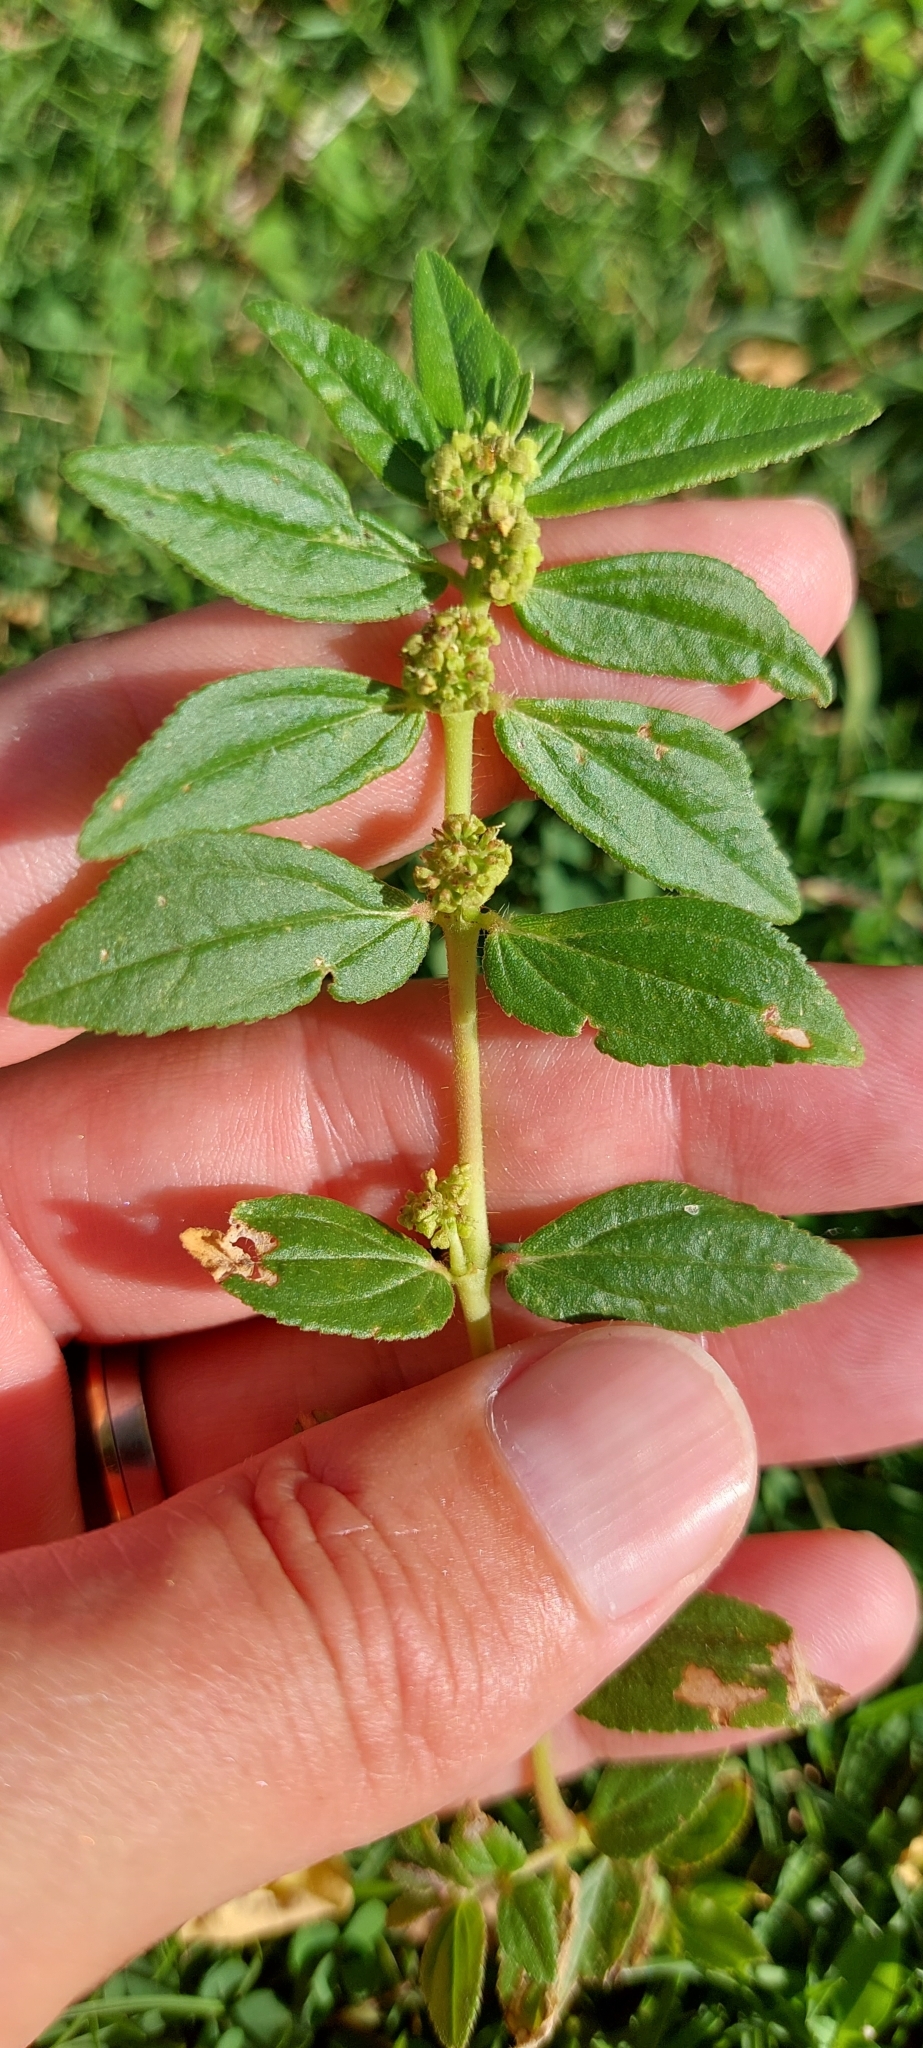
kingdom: Plantae
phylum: Tracheophyta
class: Magnoliopsida
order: Malpighiales
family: Euphorbiaceae
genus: Euphorbia
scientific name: Euphorbia hirta
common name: Pillpod sandmat
